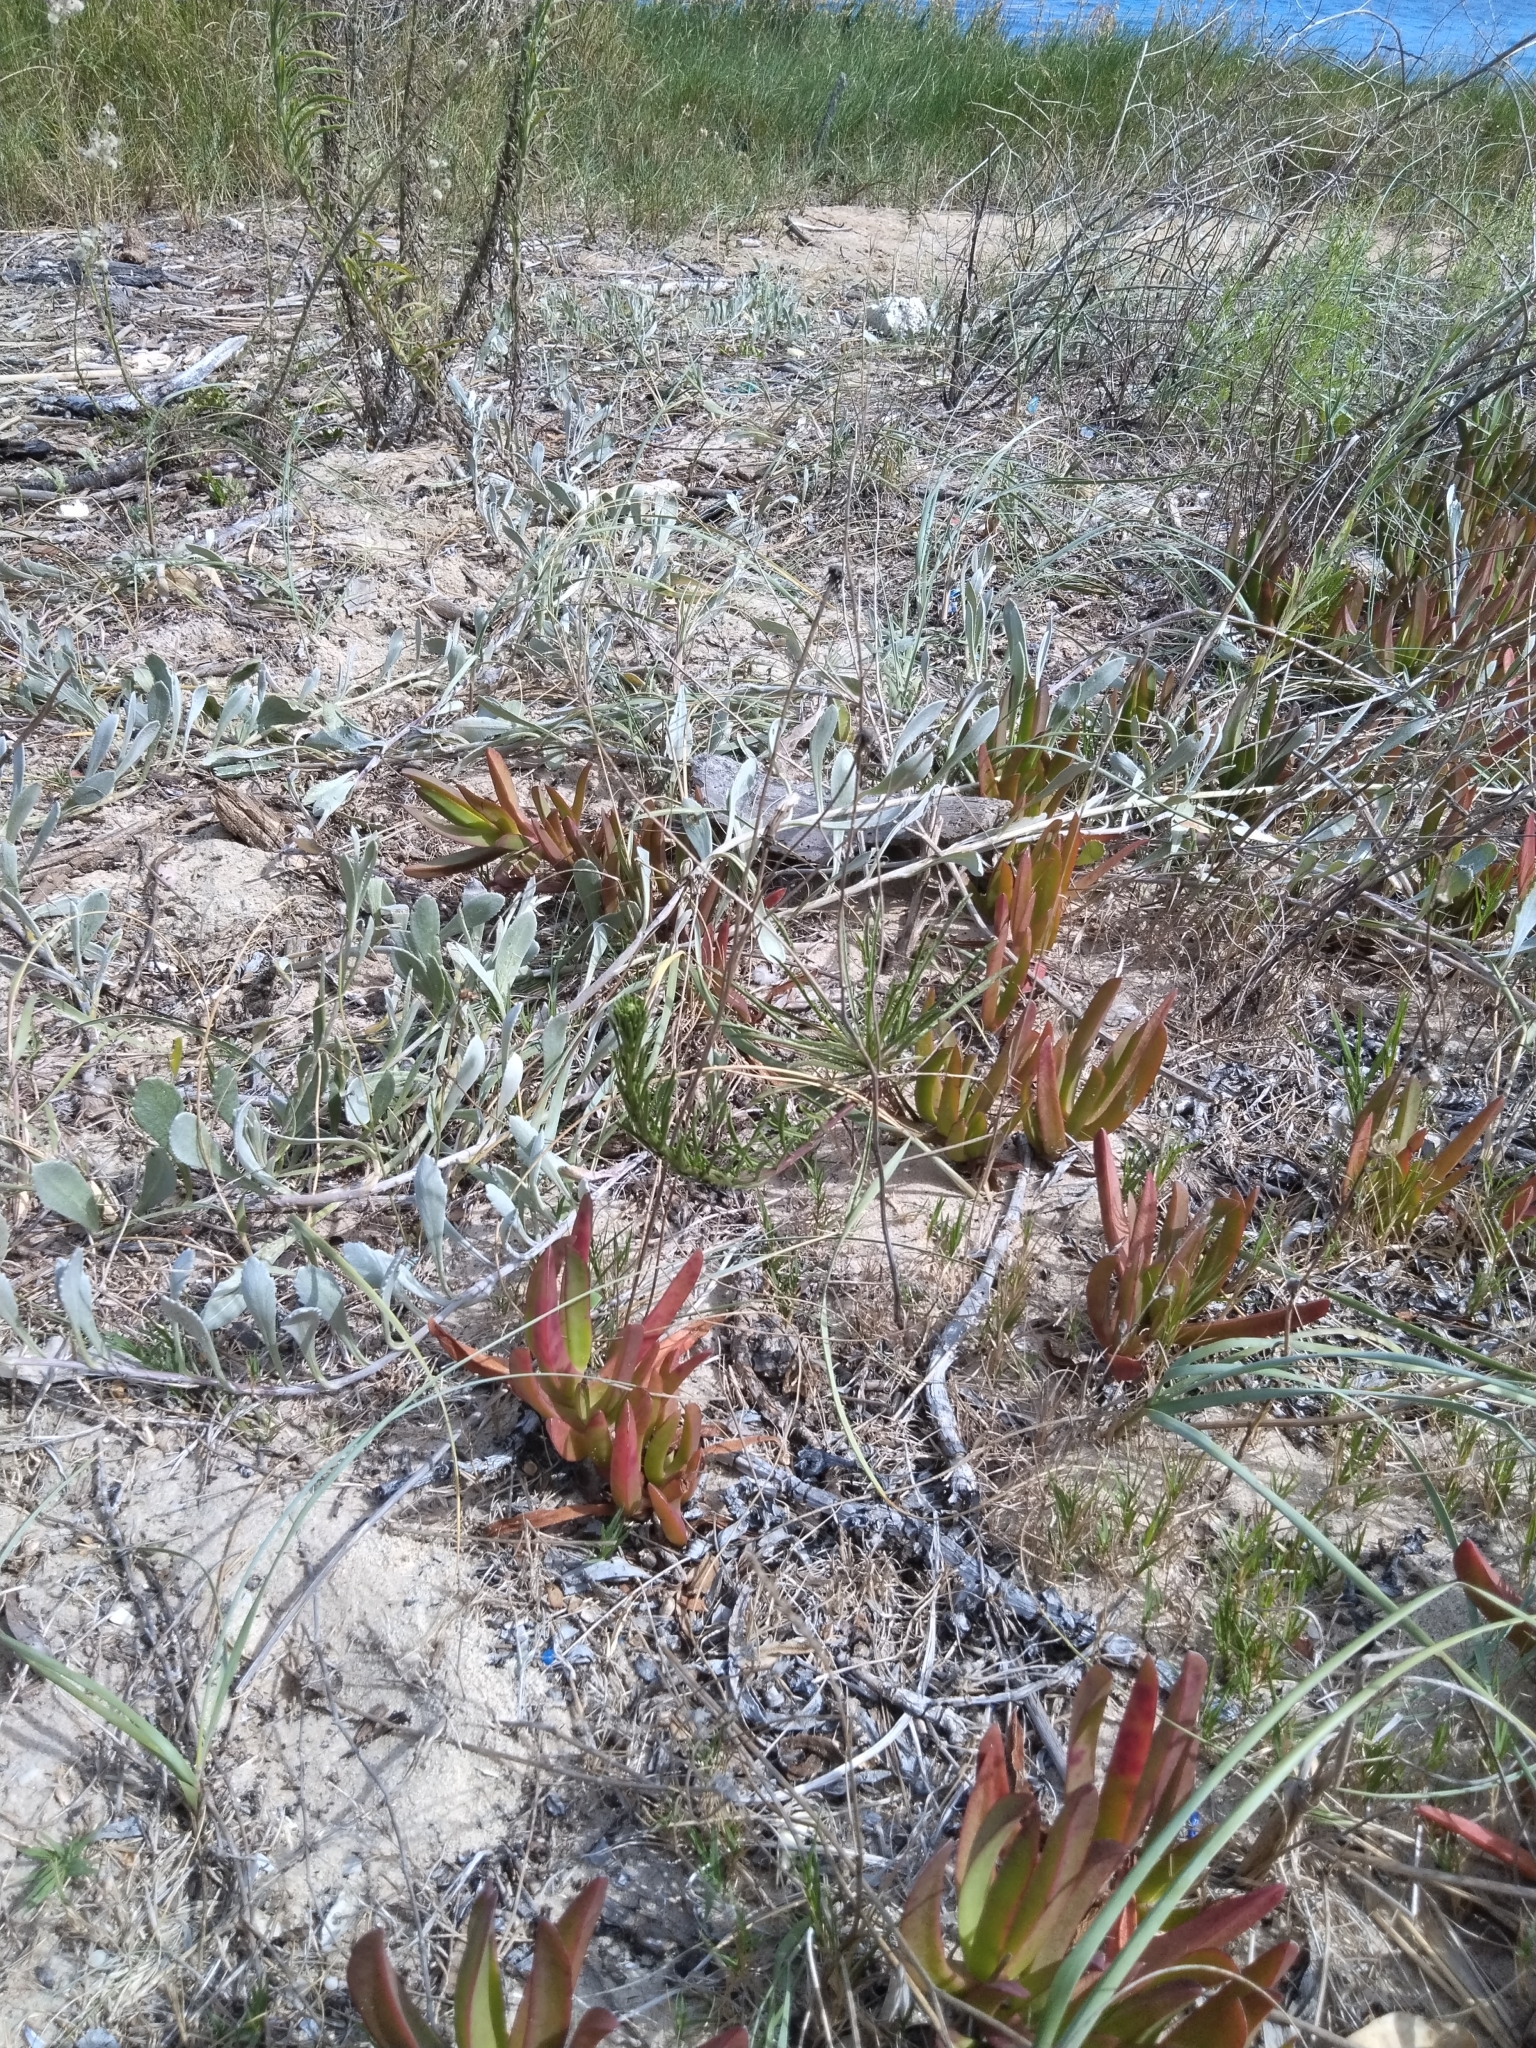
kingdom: Plantae
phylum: Tracheophyta
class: Magnoliopsida
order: Caryophyllales
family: Aizoaceae
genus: Carpobrotus
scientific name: Carpobrotus edulis
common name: Hottentot-fig
